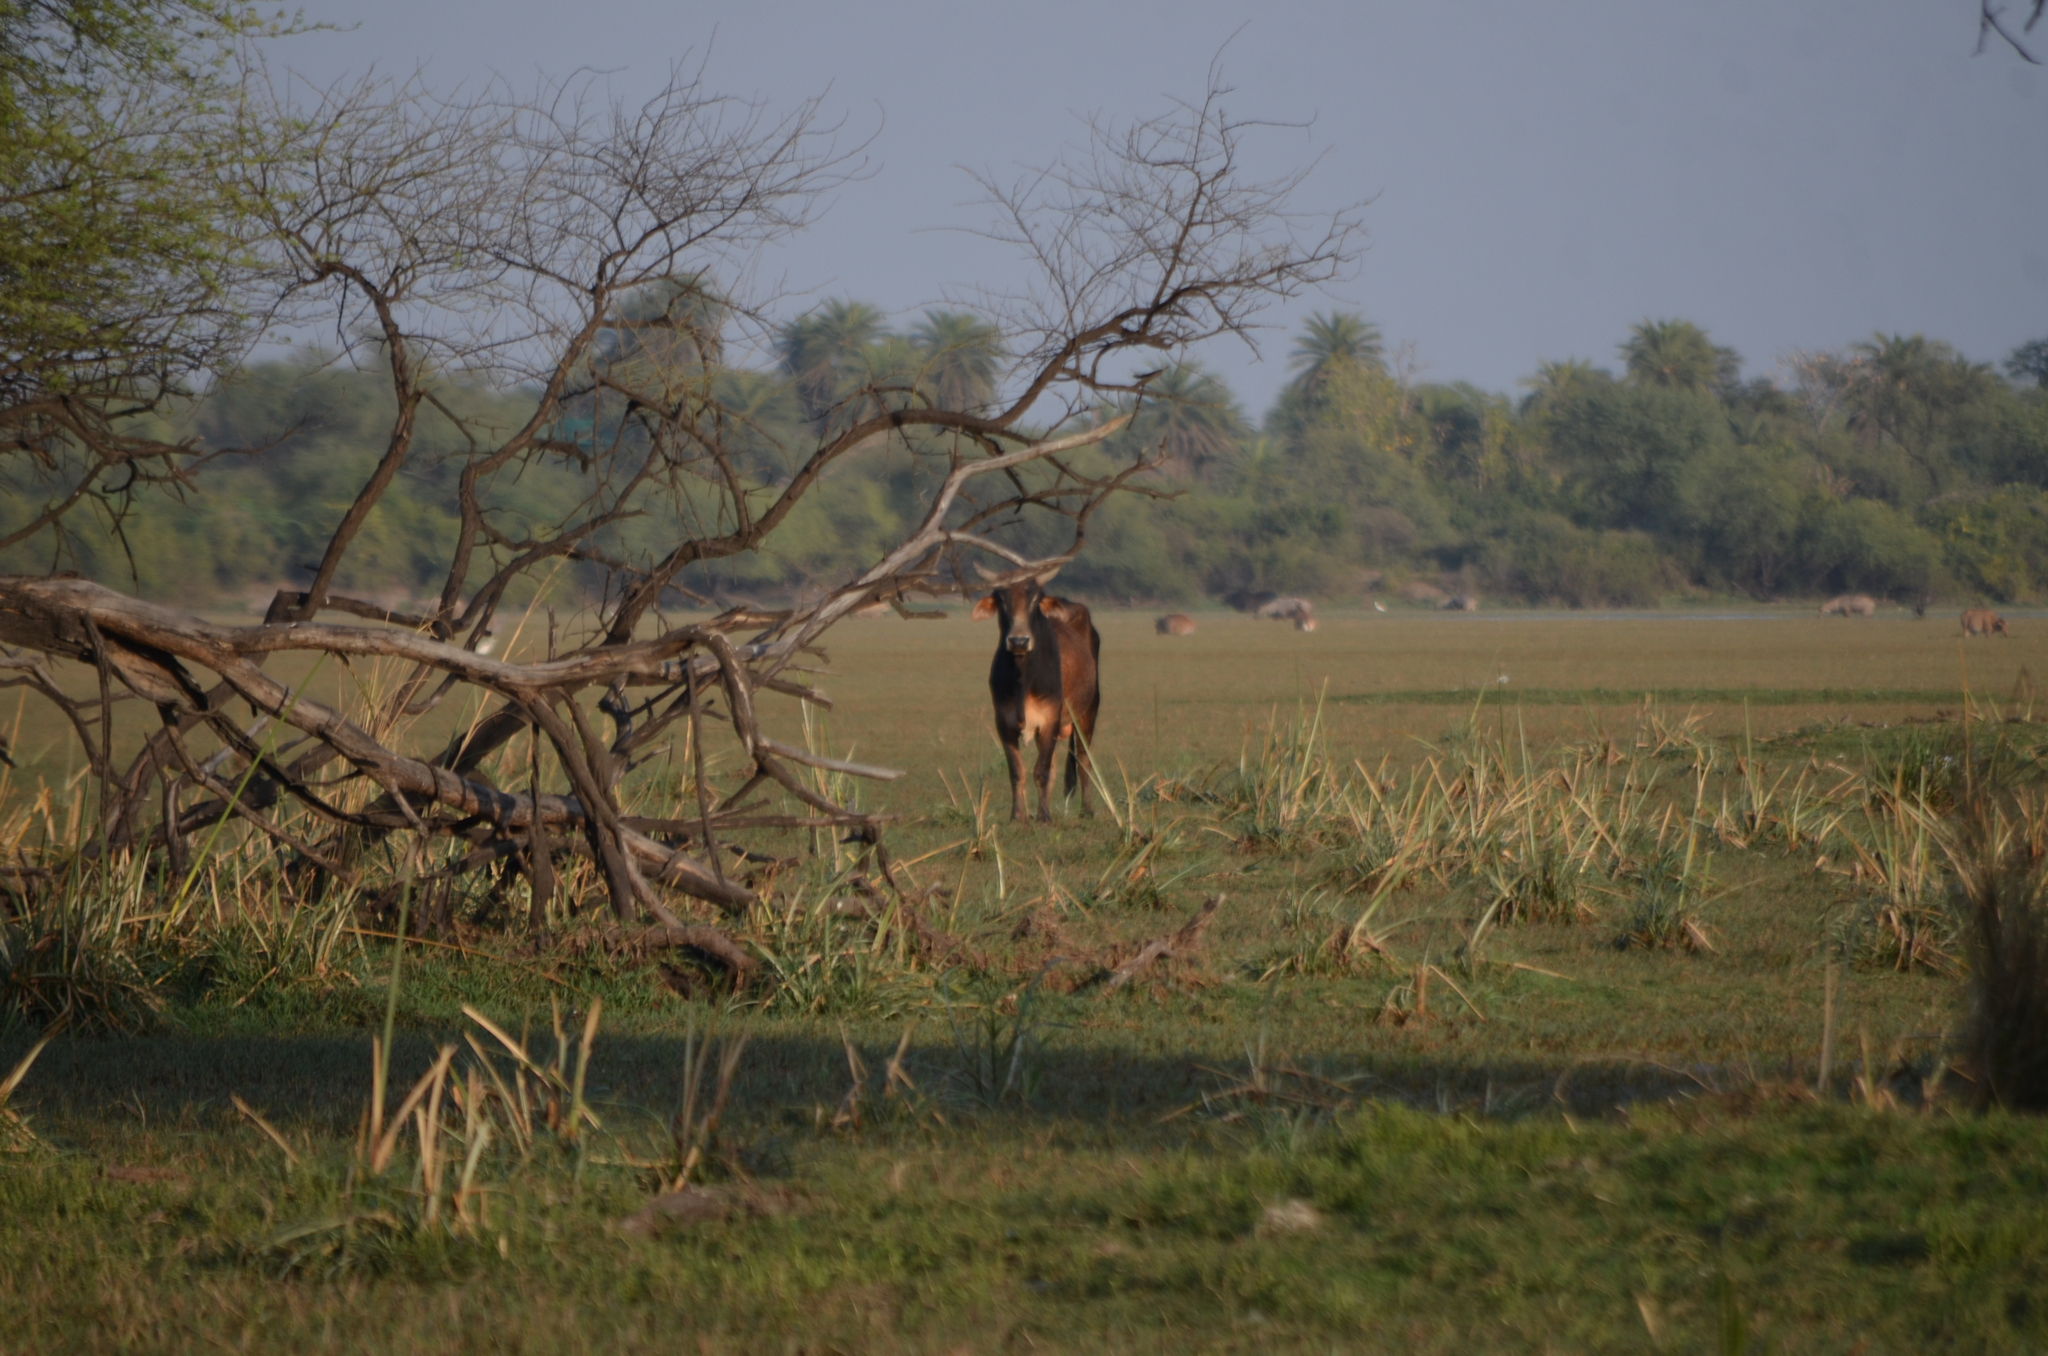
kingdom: Animalia
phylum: Chordata
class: Mammalia
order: Artiodactyla
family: Bovidae
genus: Bos
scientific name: Bos taurus
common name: Domesticated cattle
